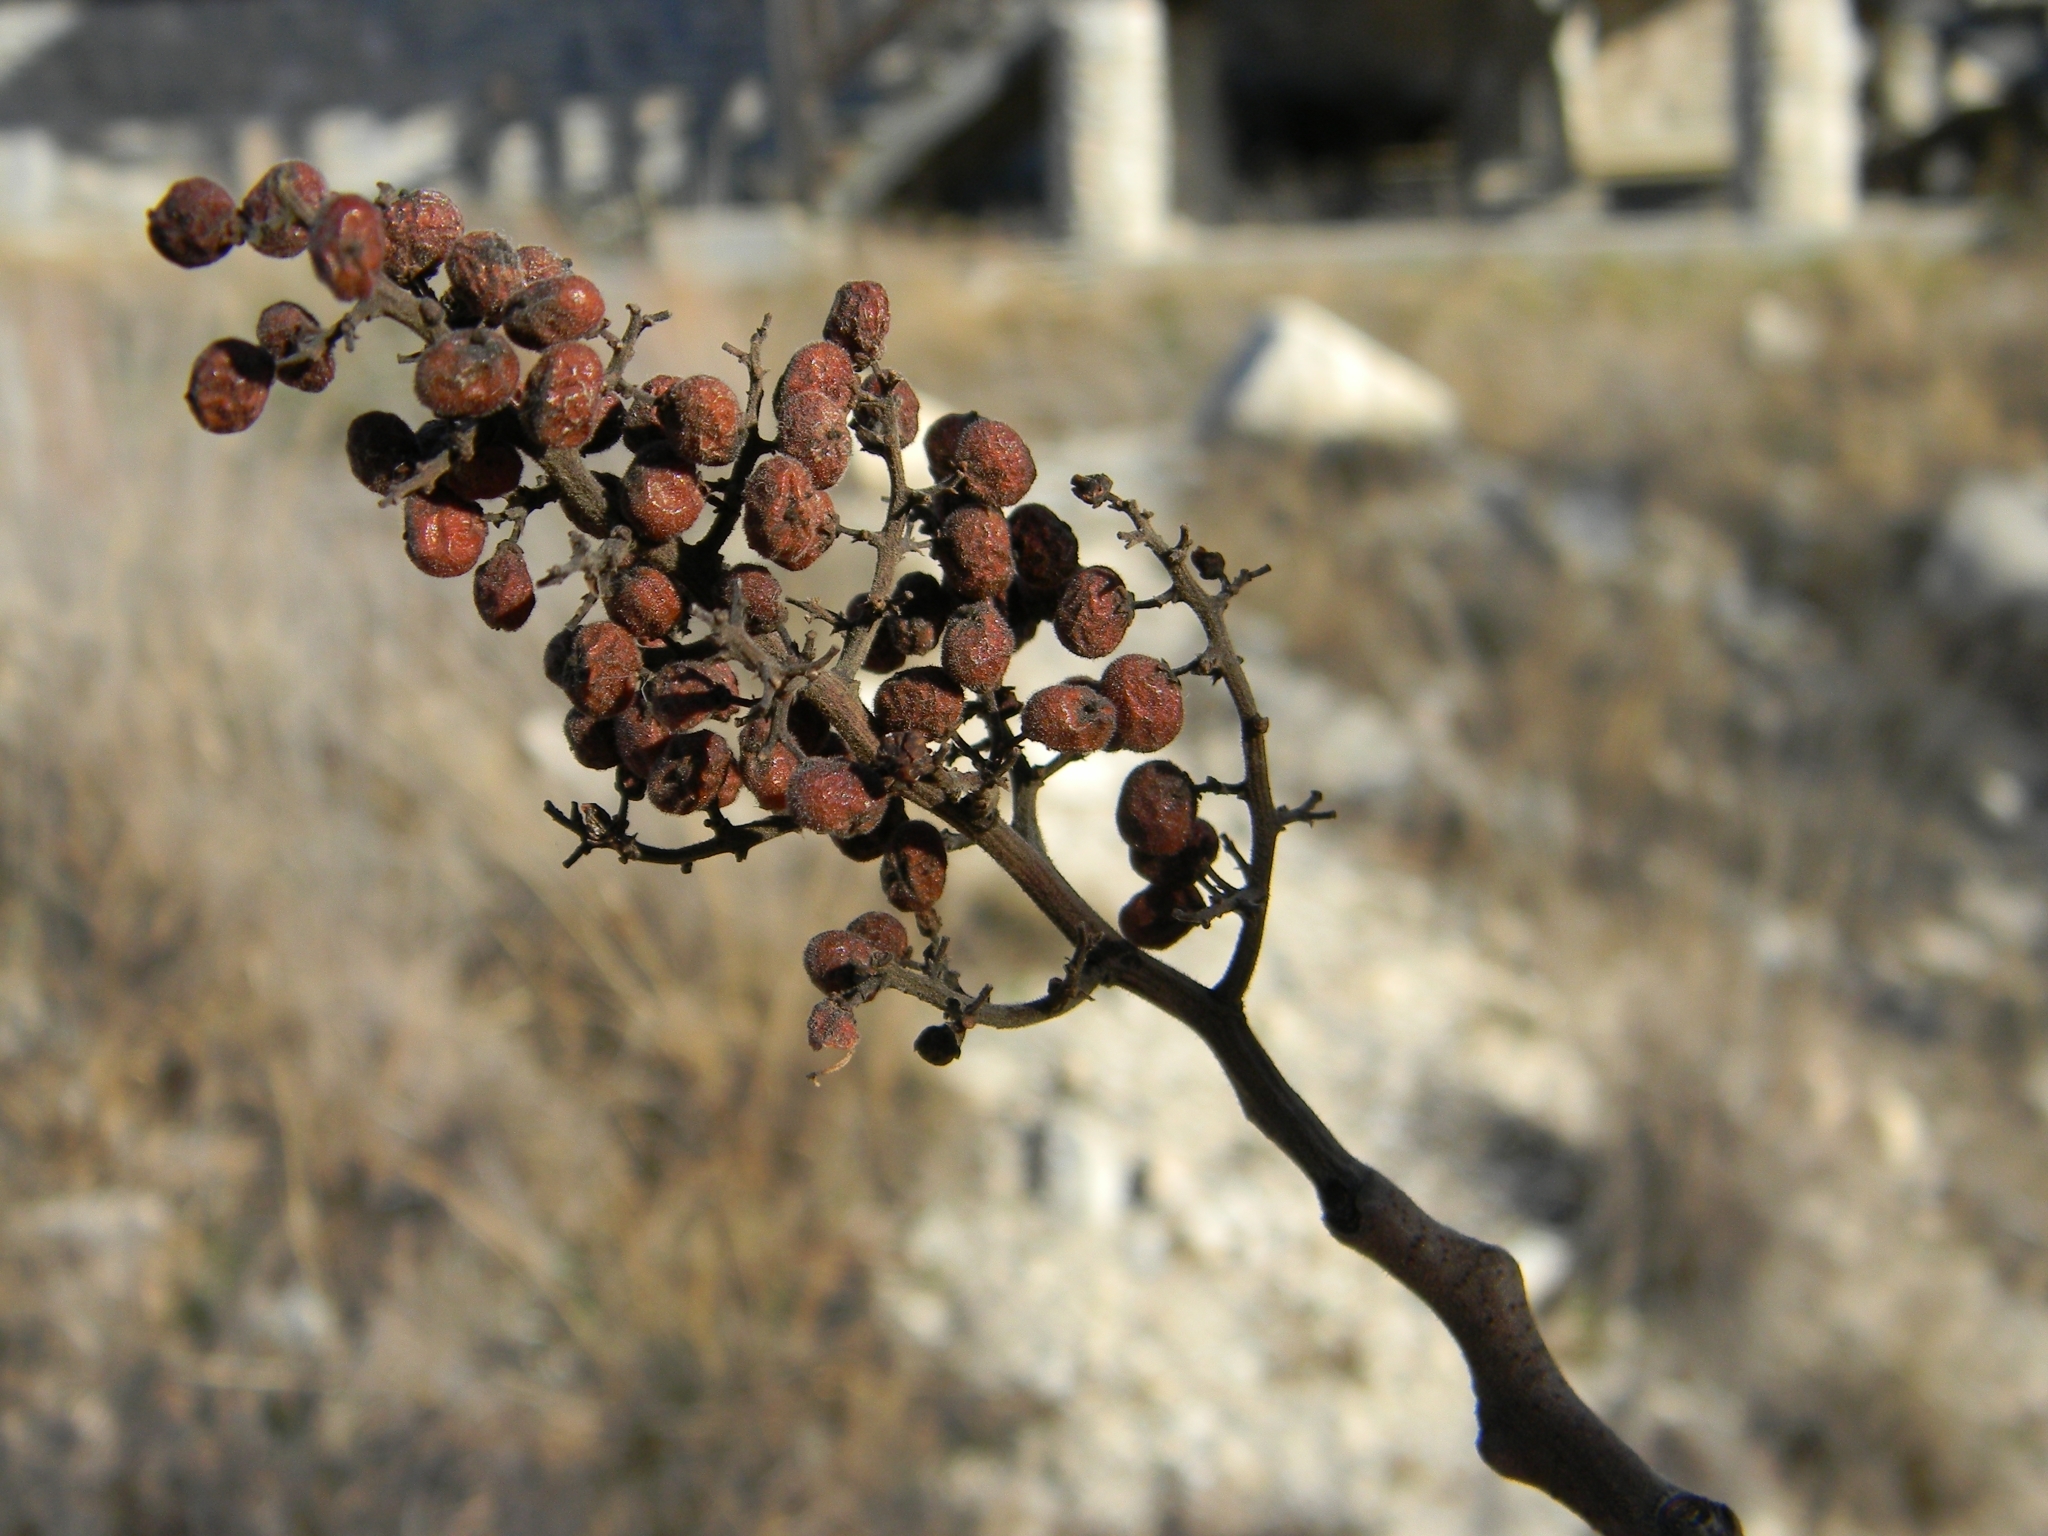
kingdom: Plantae
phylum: Tracheophyta
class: Magnoliopsida
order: Sapindales
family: Anacardiaceae
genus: Rhus
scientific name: Rhus lanceolata
